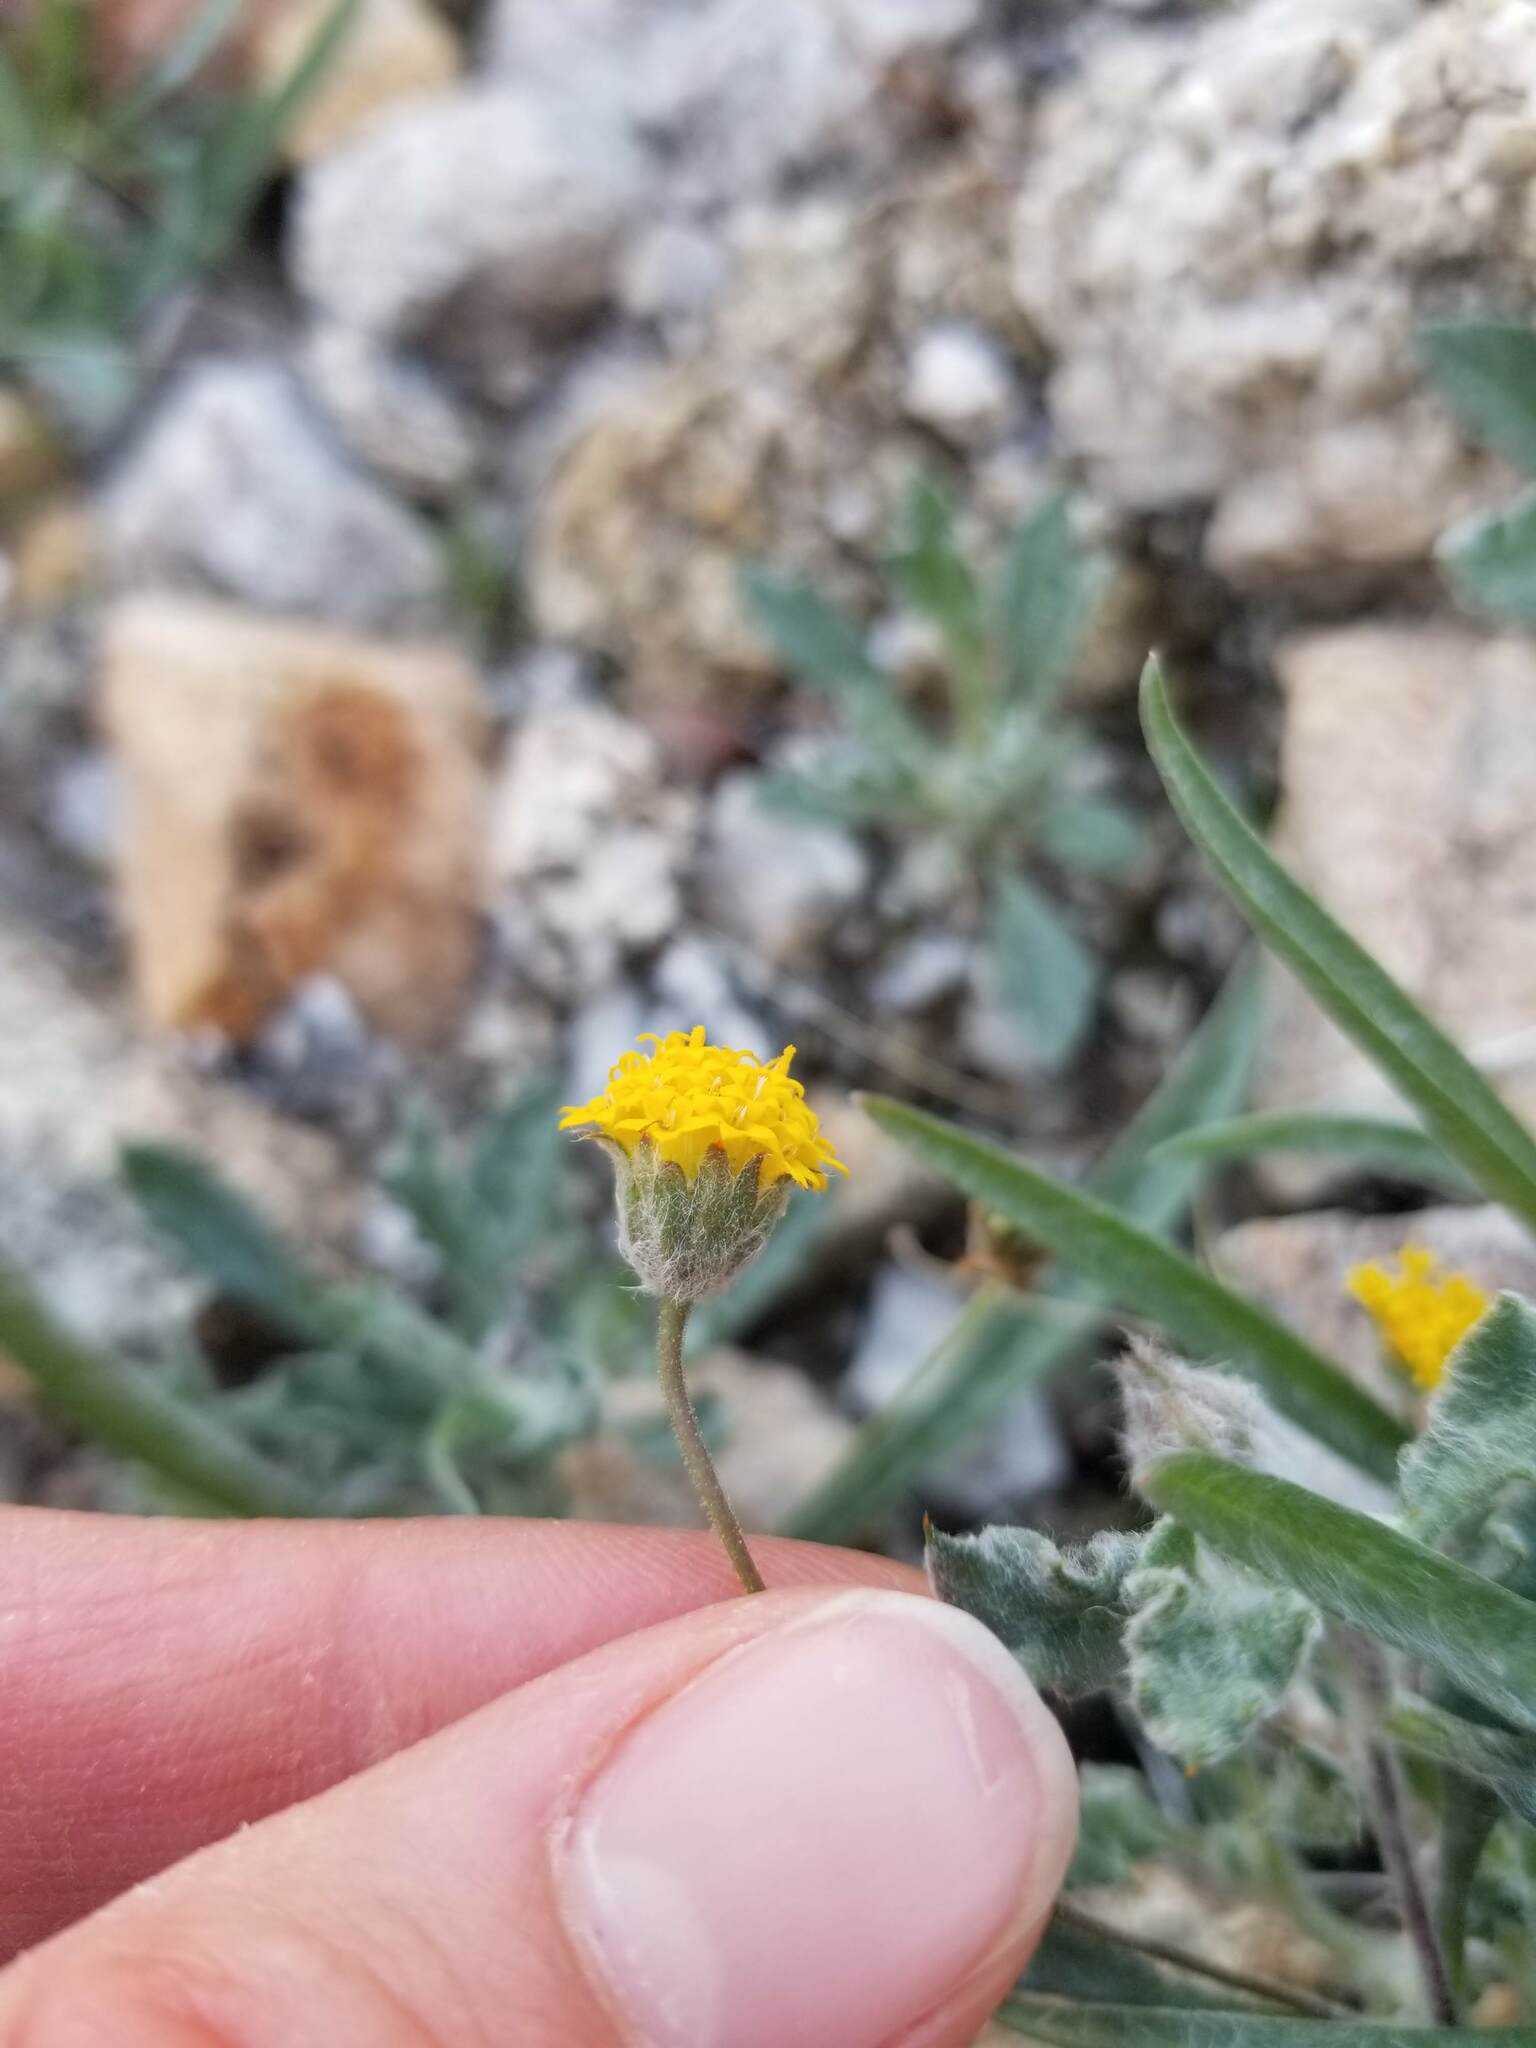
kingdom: Plantae
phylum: Tracheophyta
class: Magnoliopsida
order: Asterales
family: Asteraceae
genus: Trichoptilium
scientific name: Trichoptilium incisum
